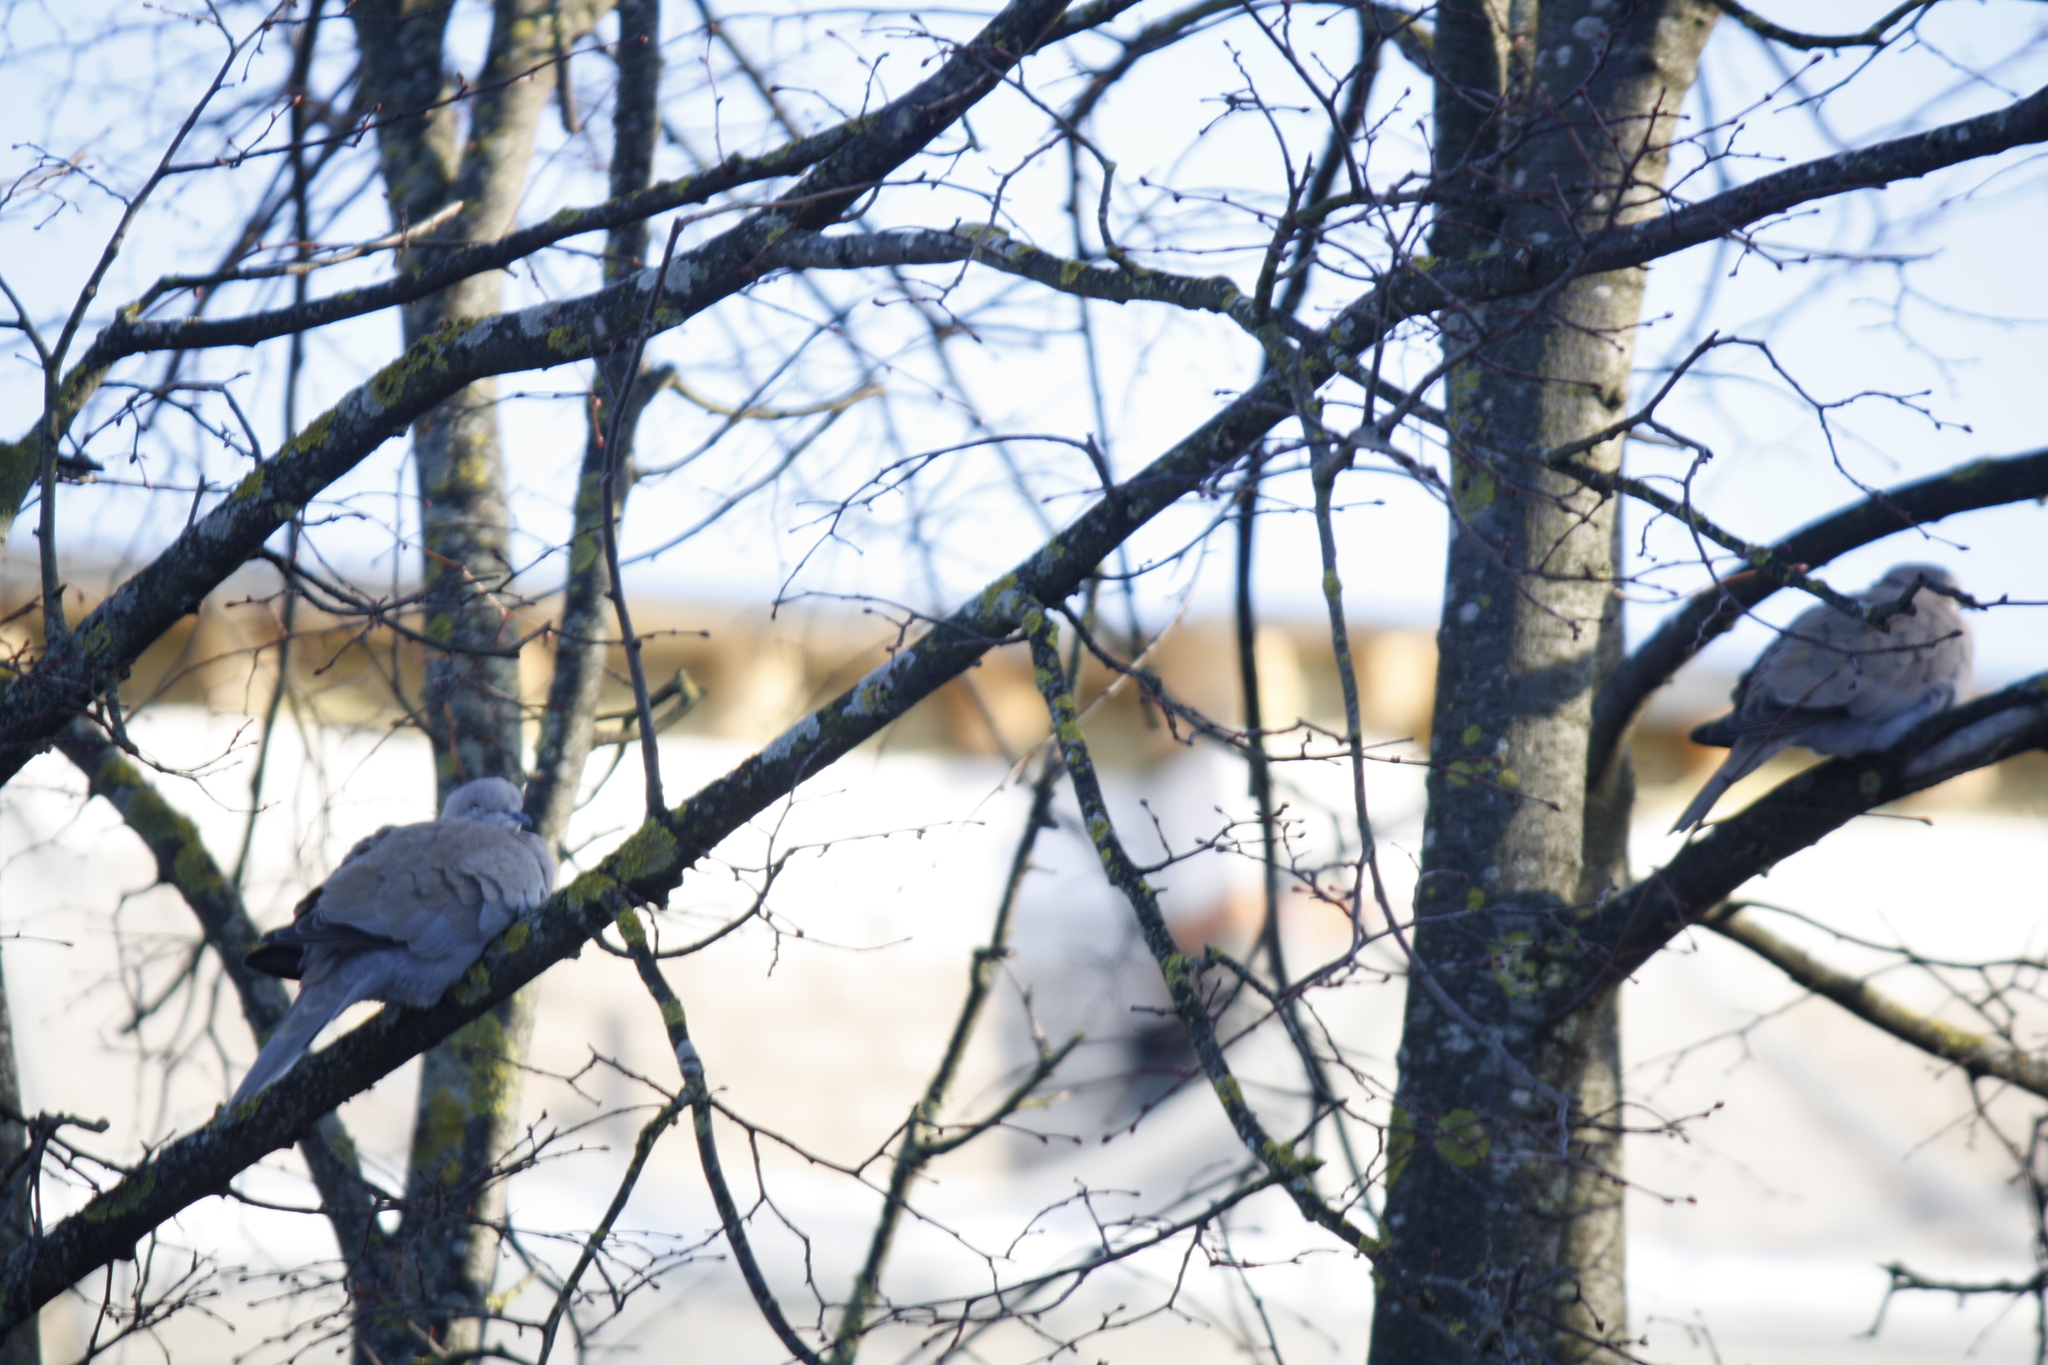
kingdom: Animalia
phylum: Chordata
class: Aves
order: Columbiformes
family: Columbidae
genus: Streptopelia
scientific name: Streptopelia decaocto
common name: Eurasian collared dove
